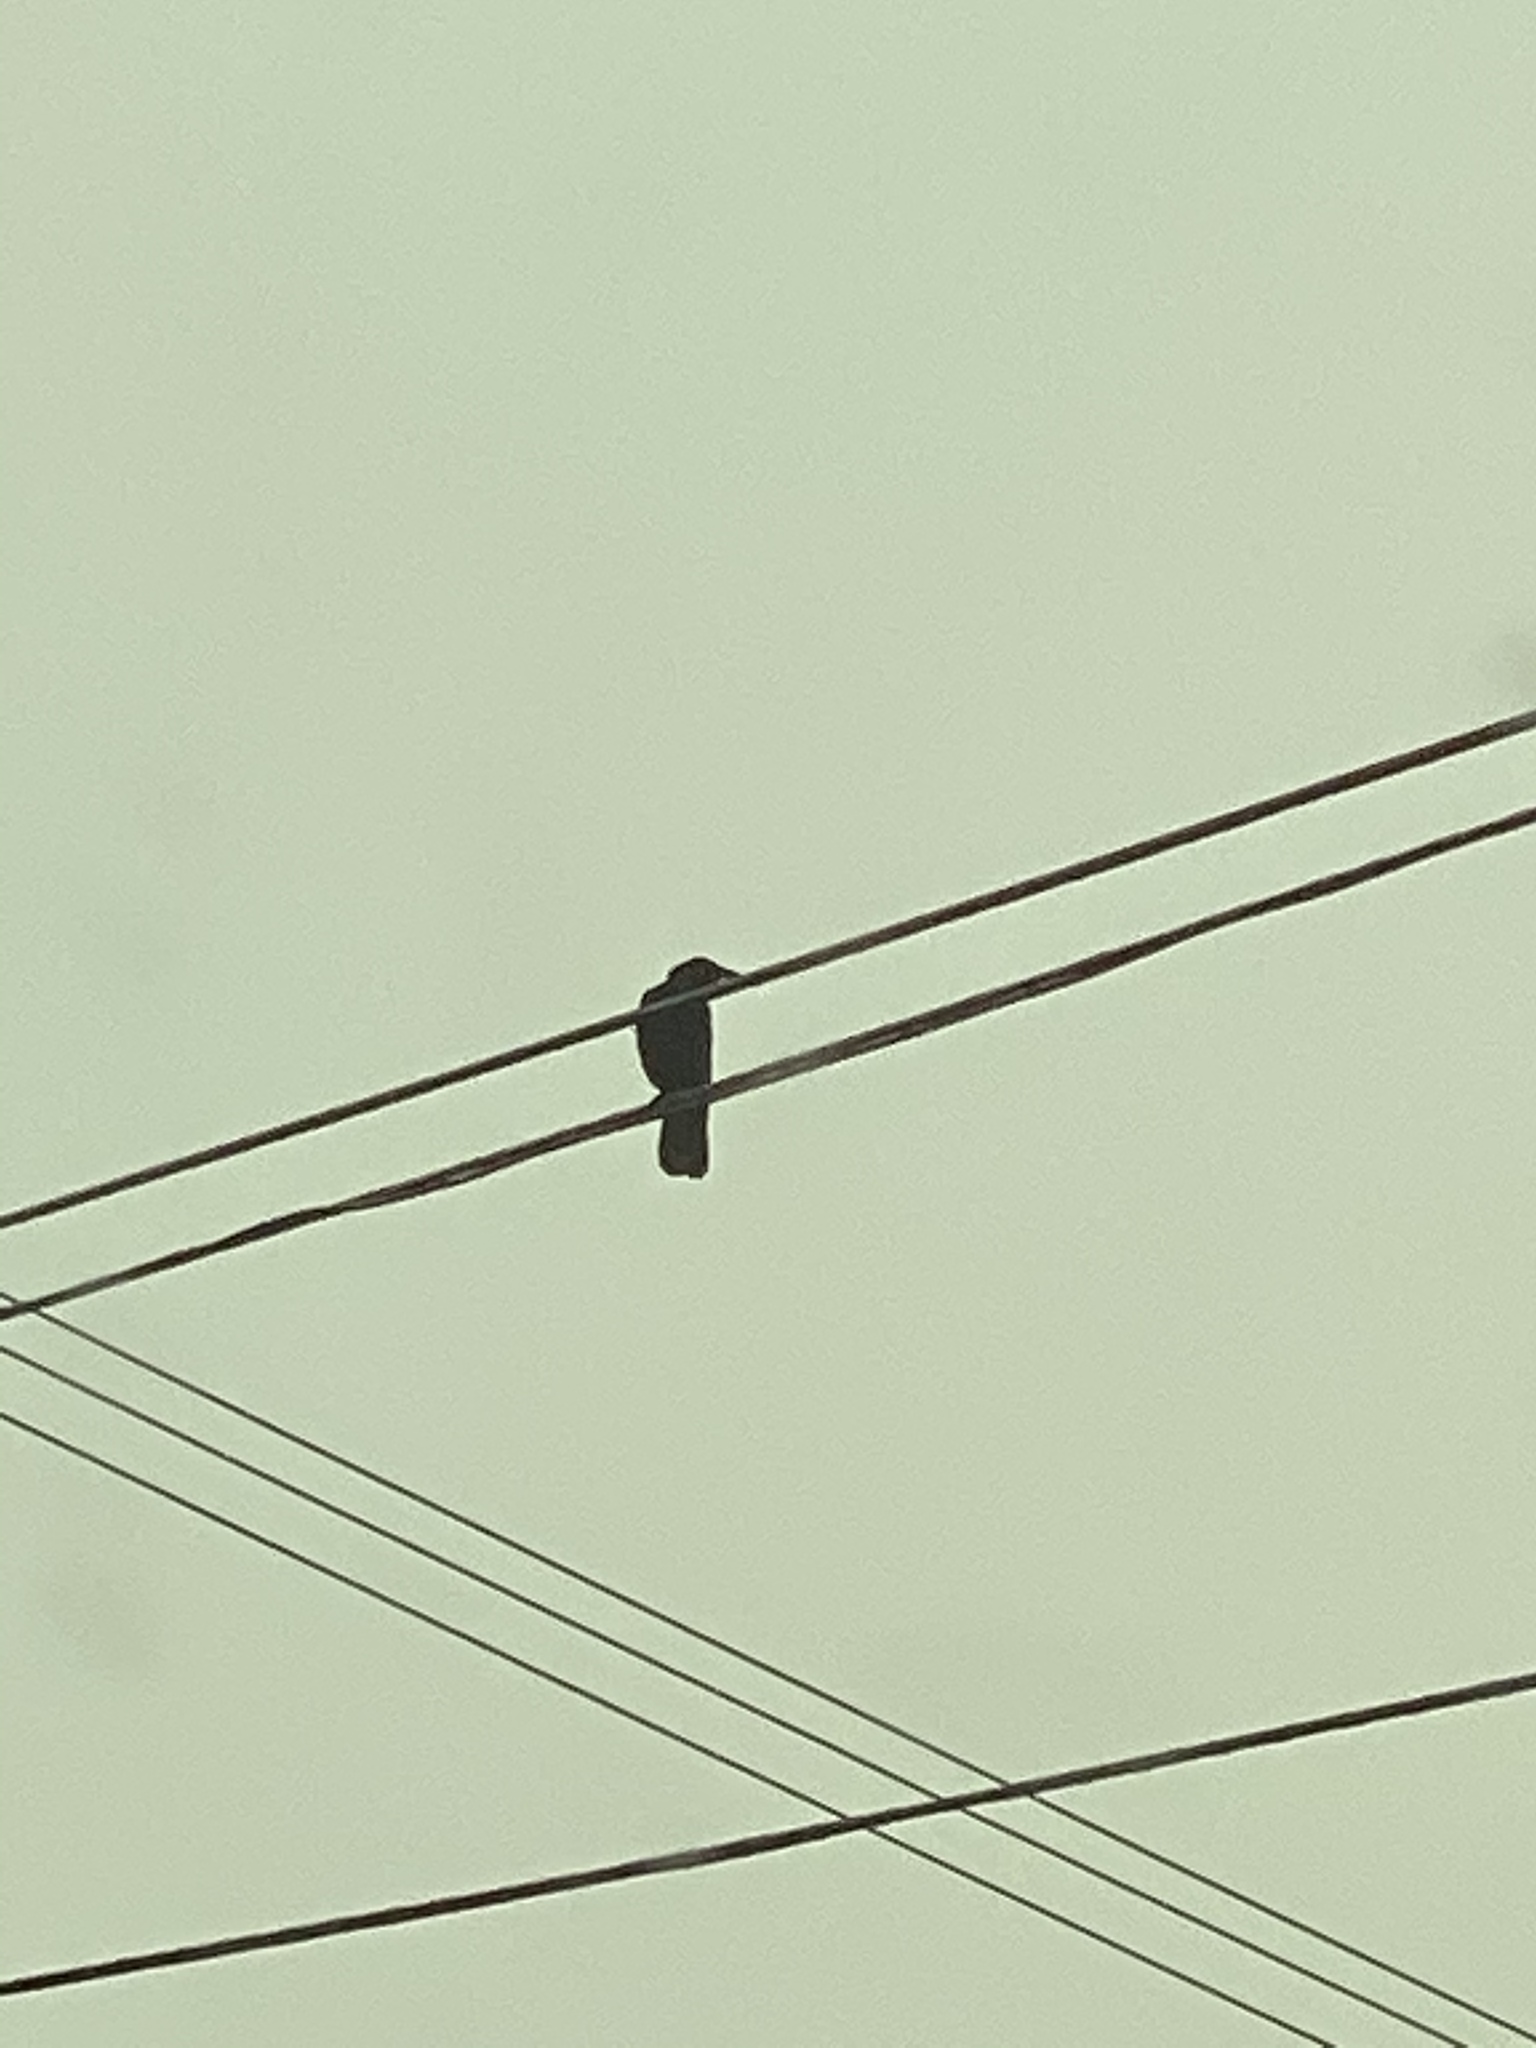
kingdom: Animalia
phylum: Chordata
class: Aves
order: Passeriformes
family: Corvidae
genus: Corvus
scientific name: Corvus brachyrhynchos
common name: American crow
